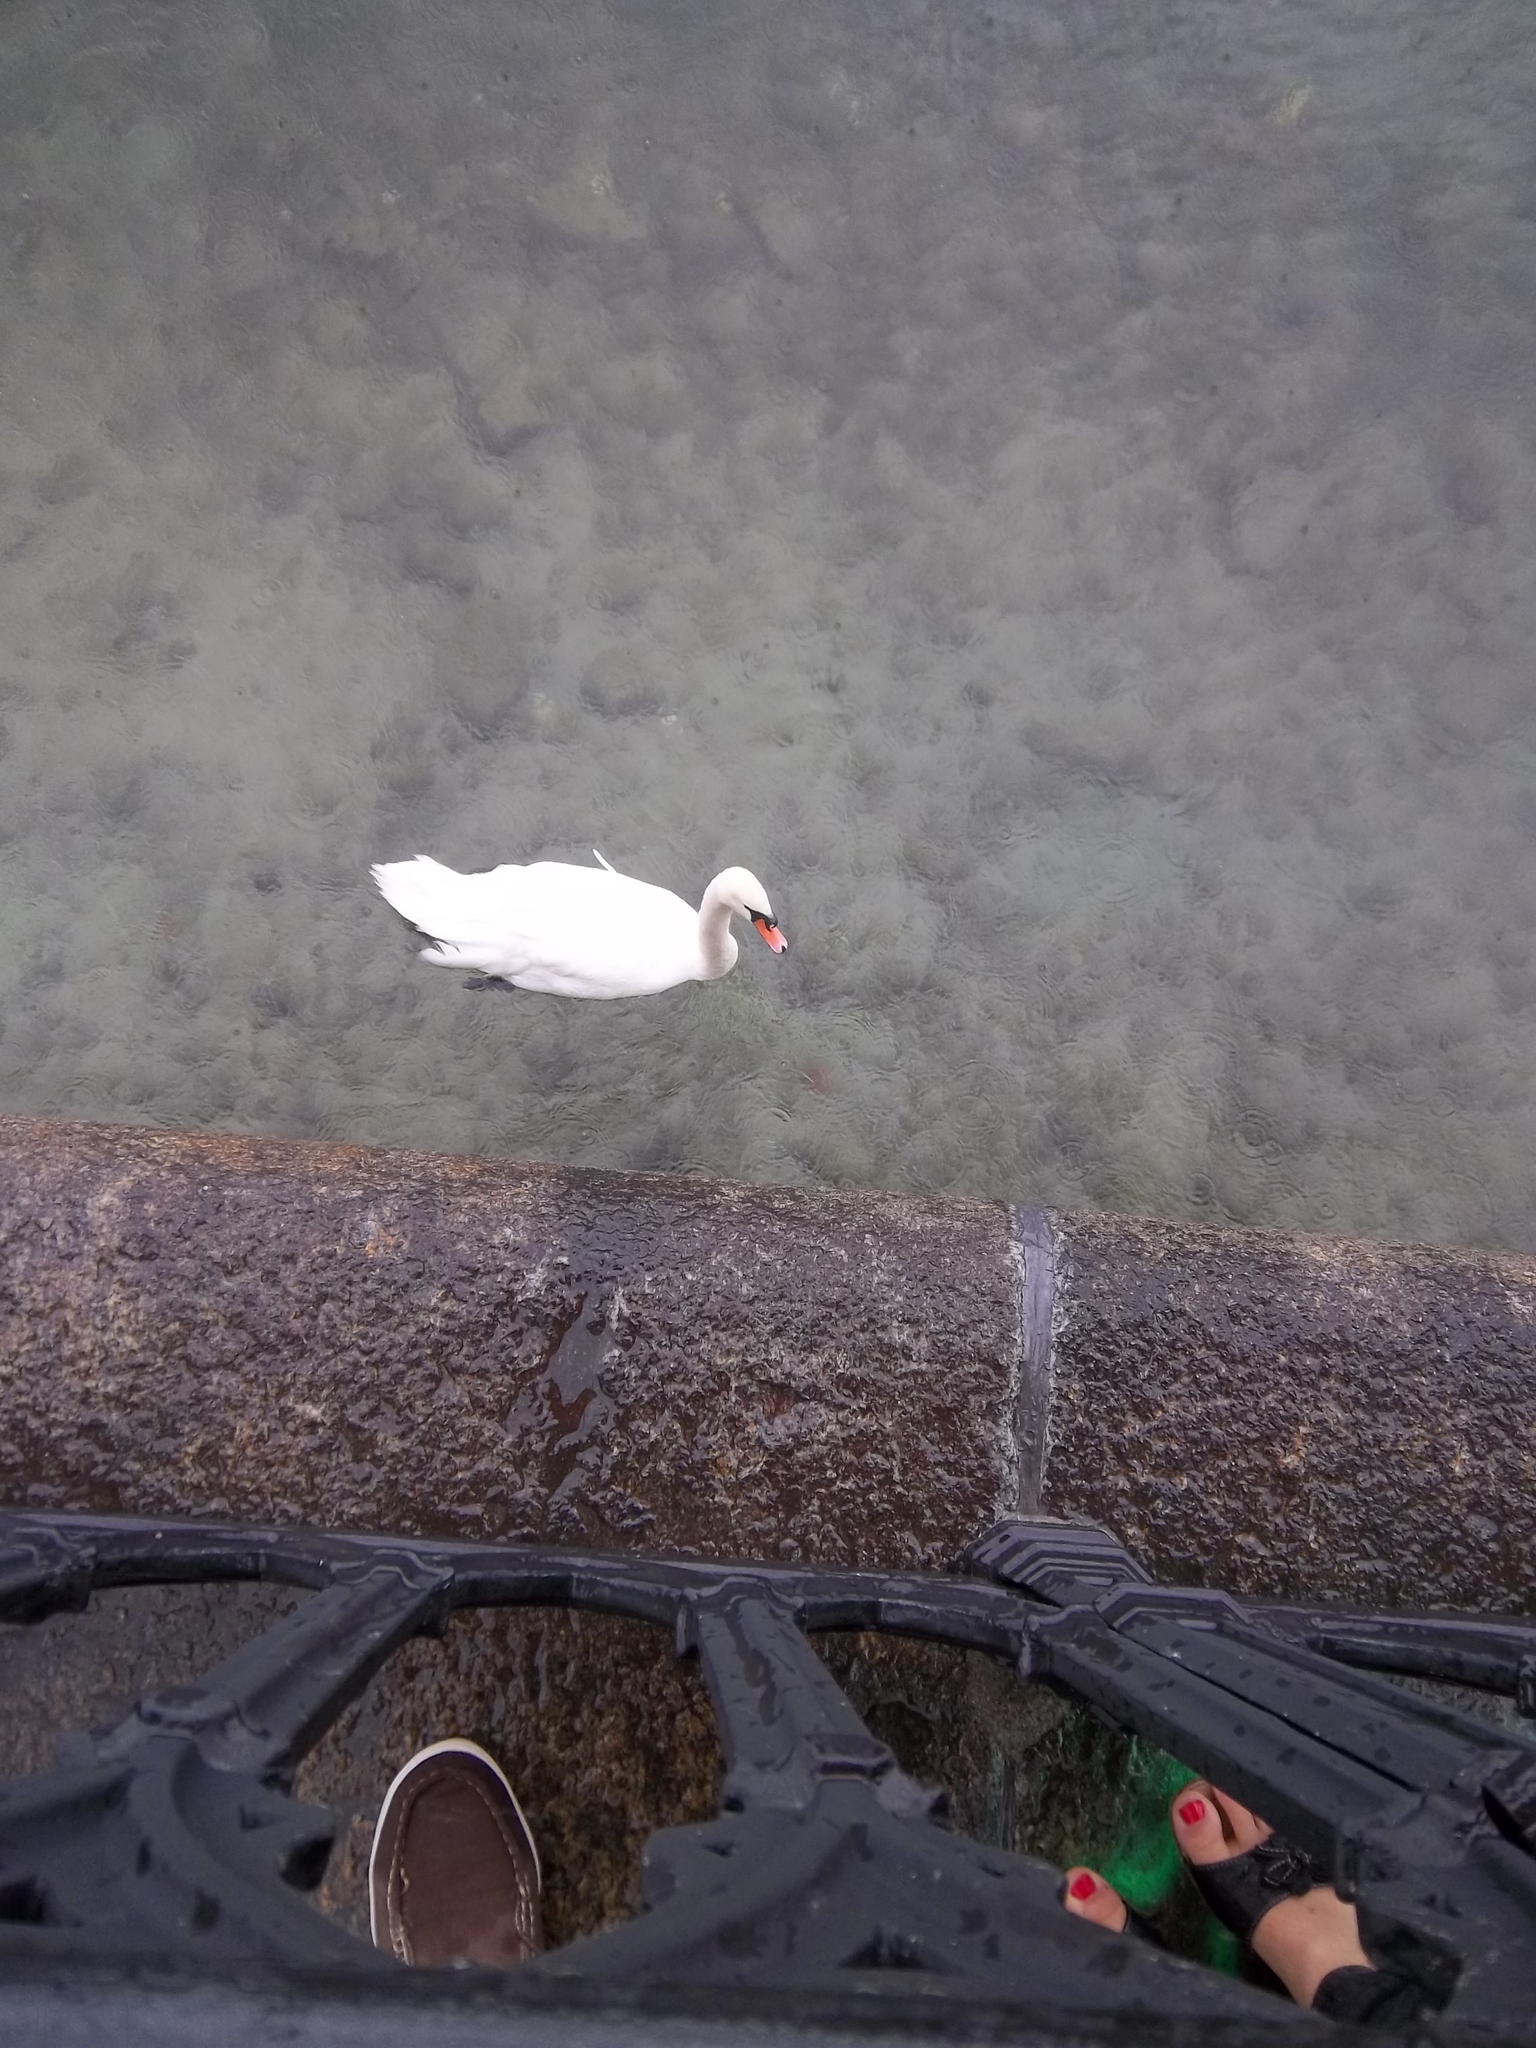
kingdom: Animalia
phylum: Chordata
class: Aves
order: Anseriformes
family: Anatidae
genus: Cygnus
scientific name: Cygnus olor
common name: Mute swan
